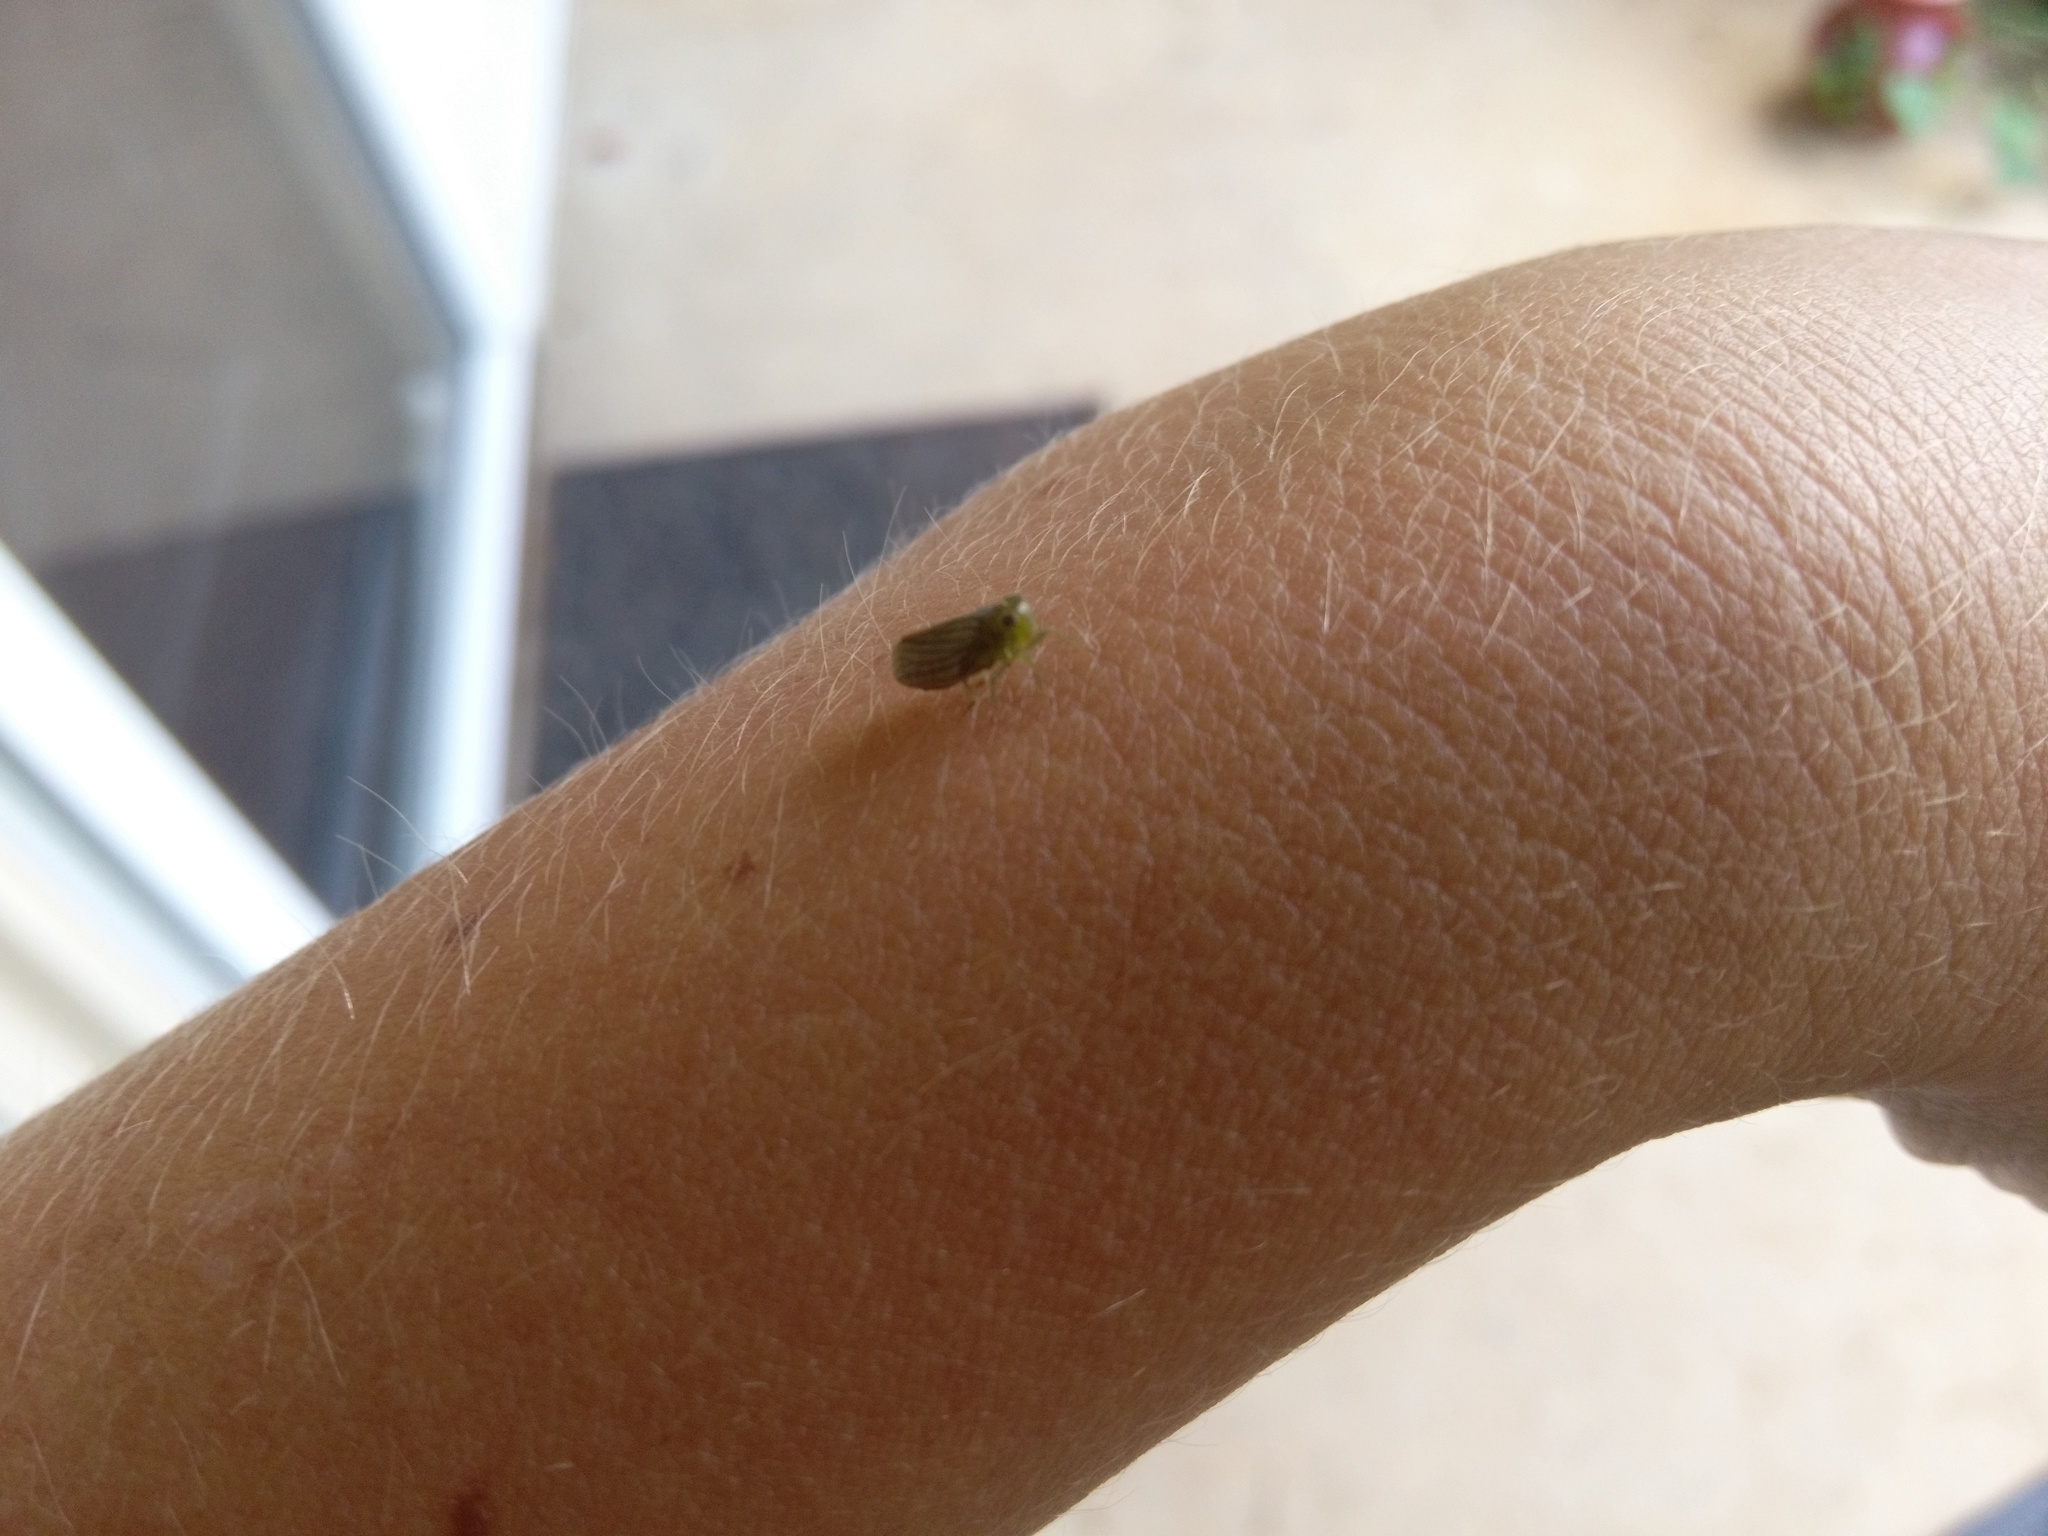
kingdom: Animalia
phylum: Arthropoda
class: Insecta
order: Hemiptera
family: Issidae
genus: Aplos
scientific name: Aplos simplex
